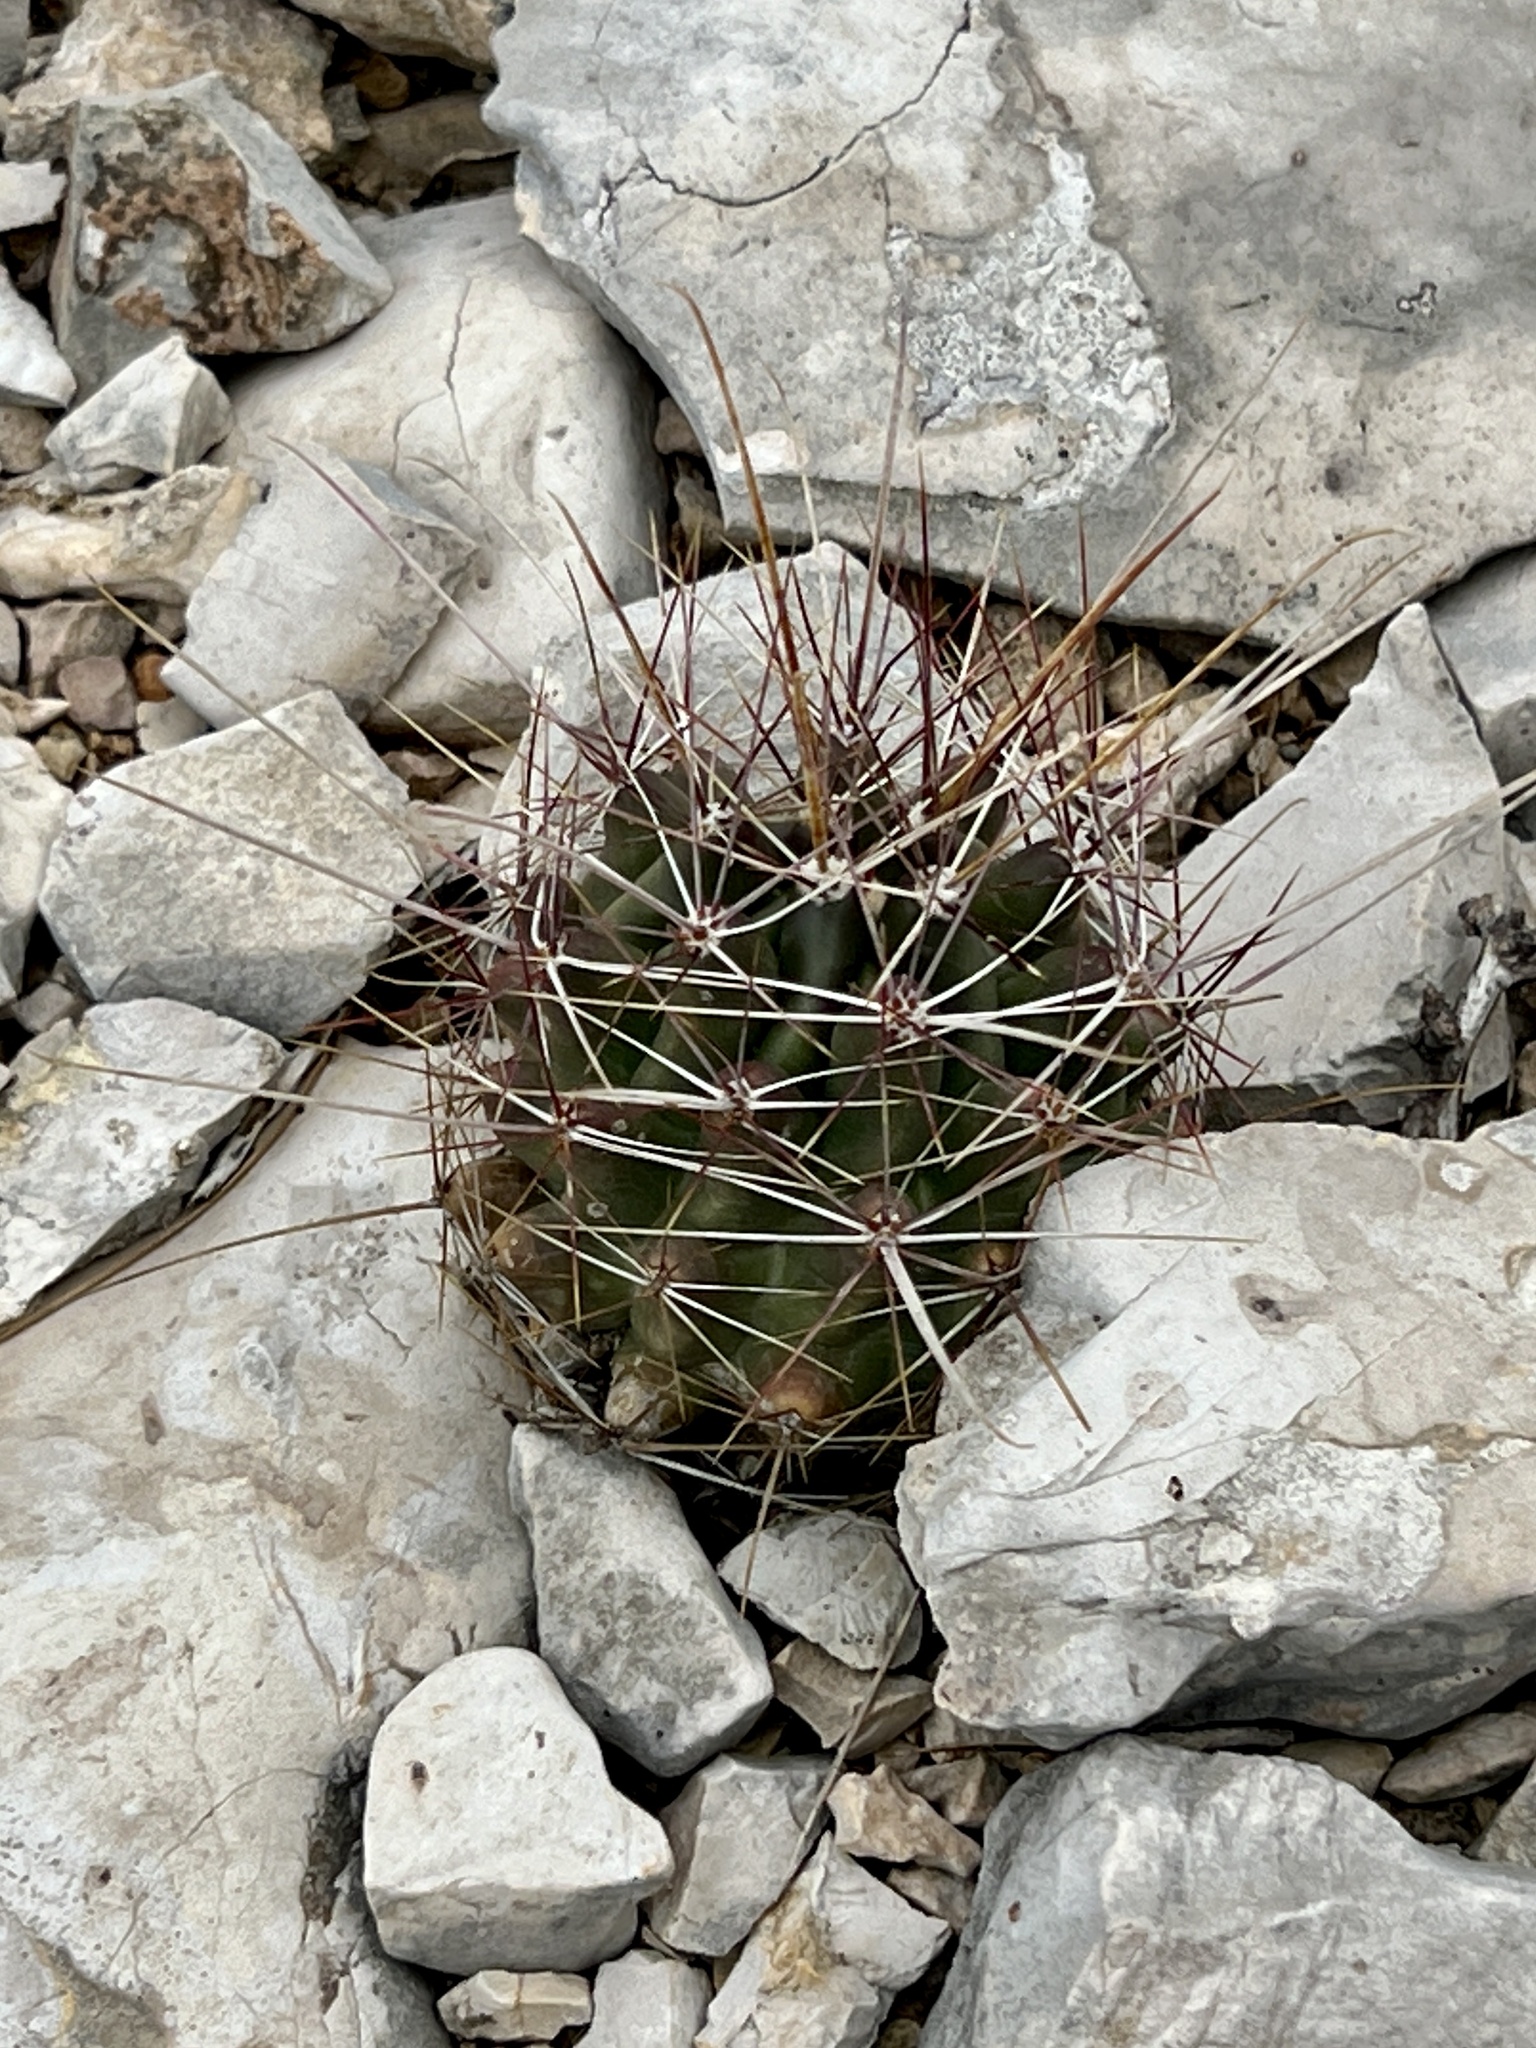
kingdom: Plantae
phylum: Tracheophyta
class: Magnoliopsida
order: Caryophyllales
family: Cactaceae
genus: Bisnaga
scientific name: Bisnaga hamatacantha
